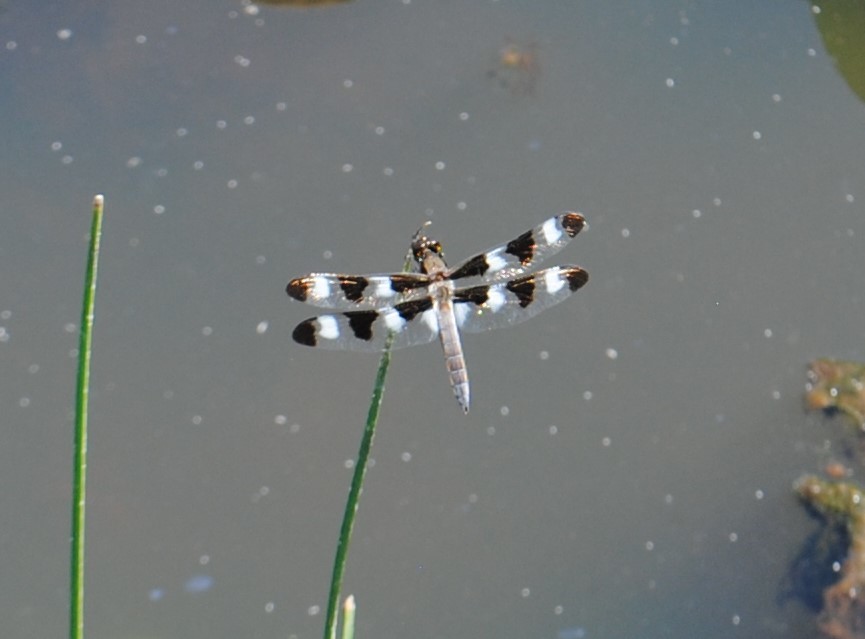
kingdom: Animalia
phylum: Arthropoda
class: Insecta
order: Odonata
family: Libellulidae
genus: Libellula
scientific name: Libellula pulchella
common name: Twelve-spotted skimmer
